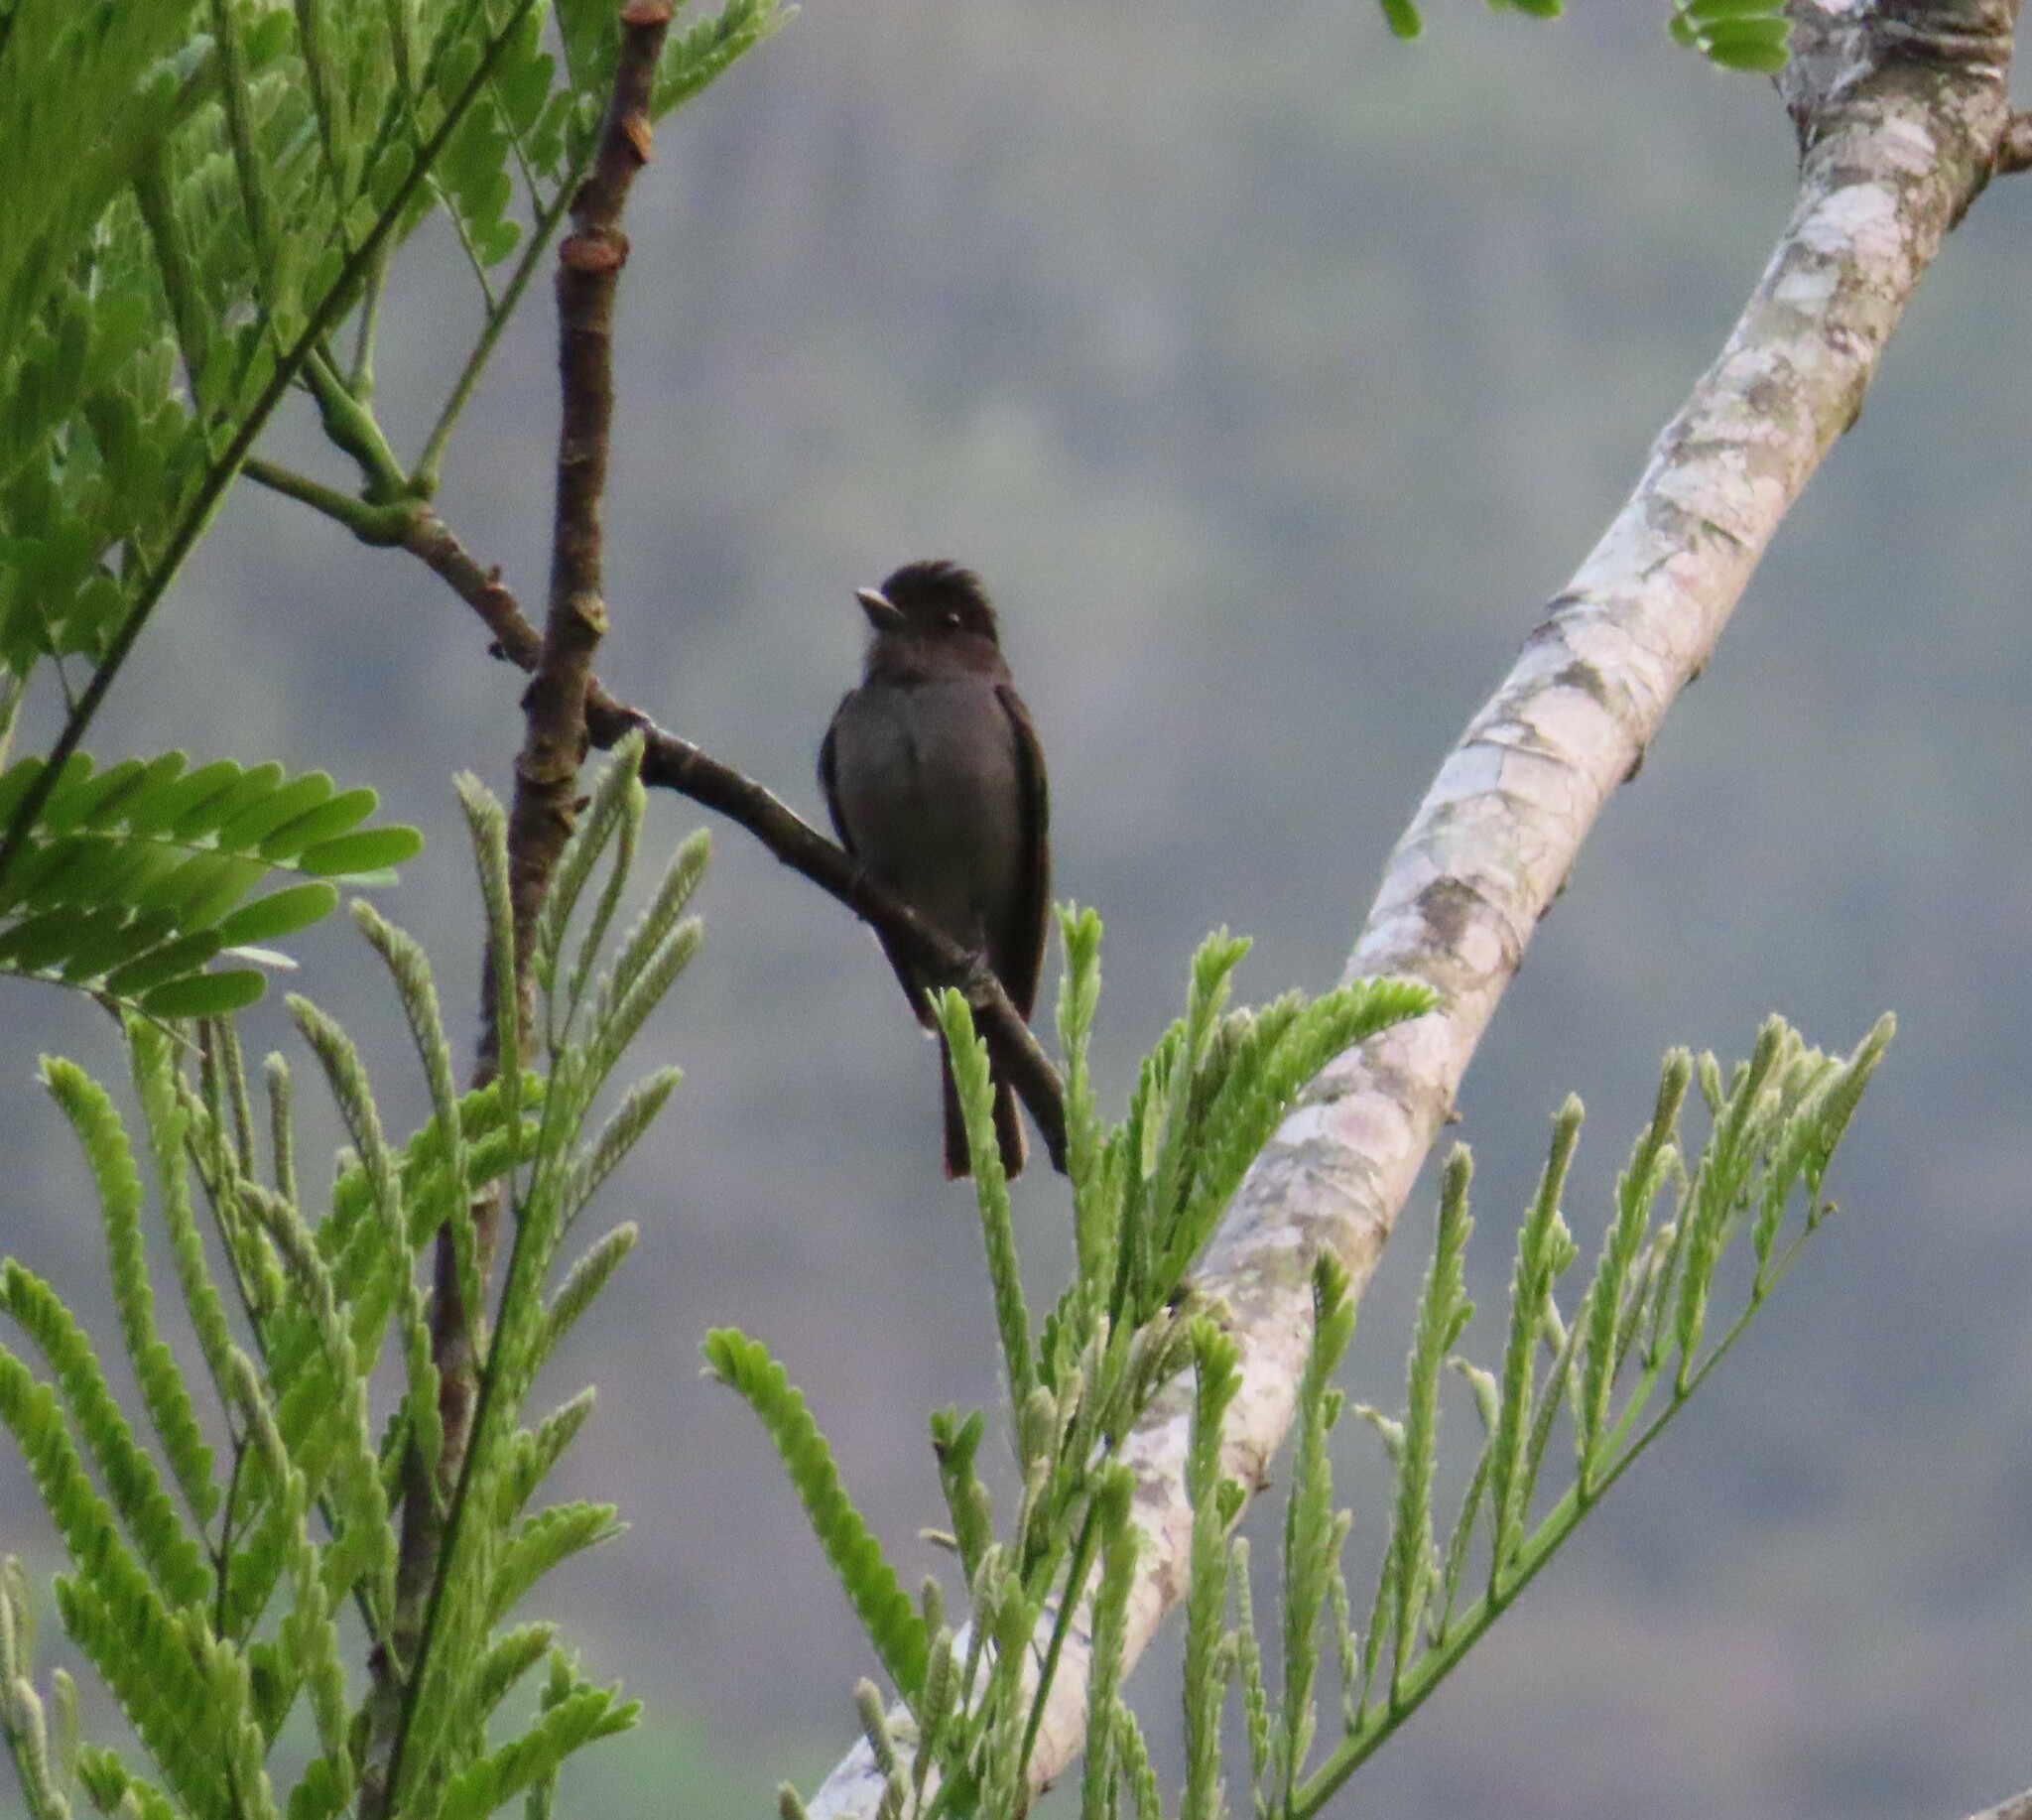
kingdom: Animalia
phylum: Chordata
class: Aves
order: Passeriformes
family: Cotingidae
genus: Pachyramphus
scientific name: Pachyramphus aglaiae
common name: Rose-throated becard
